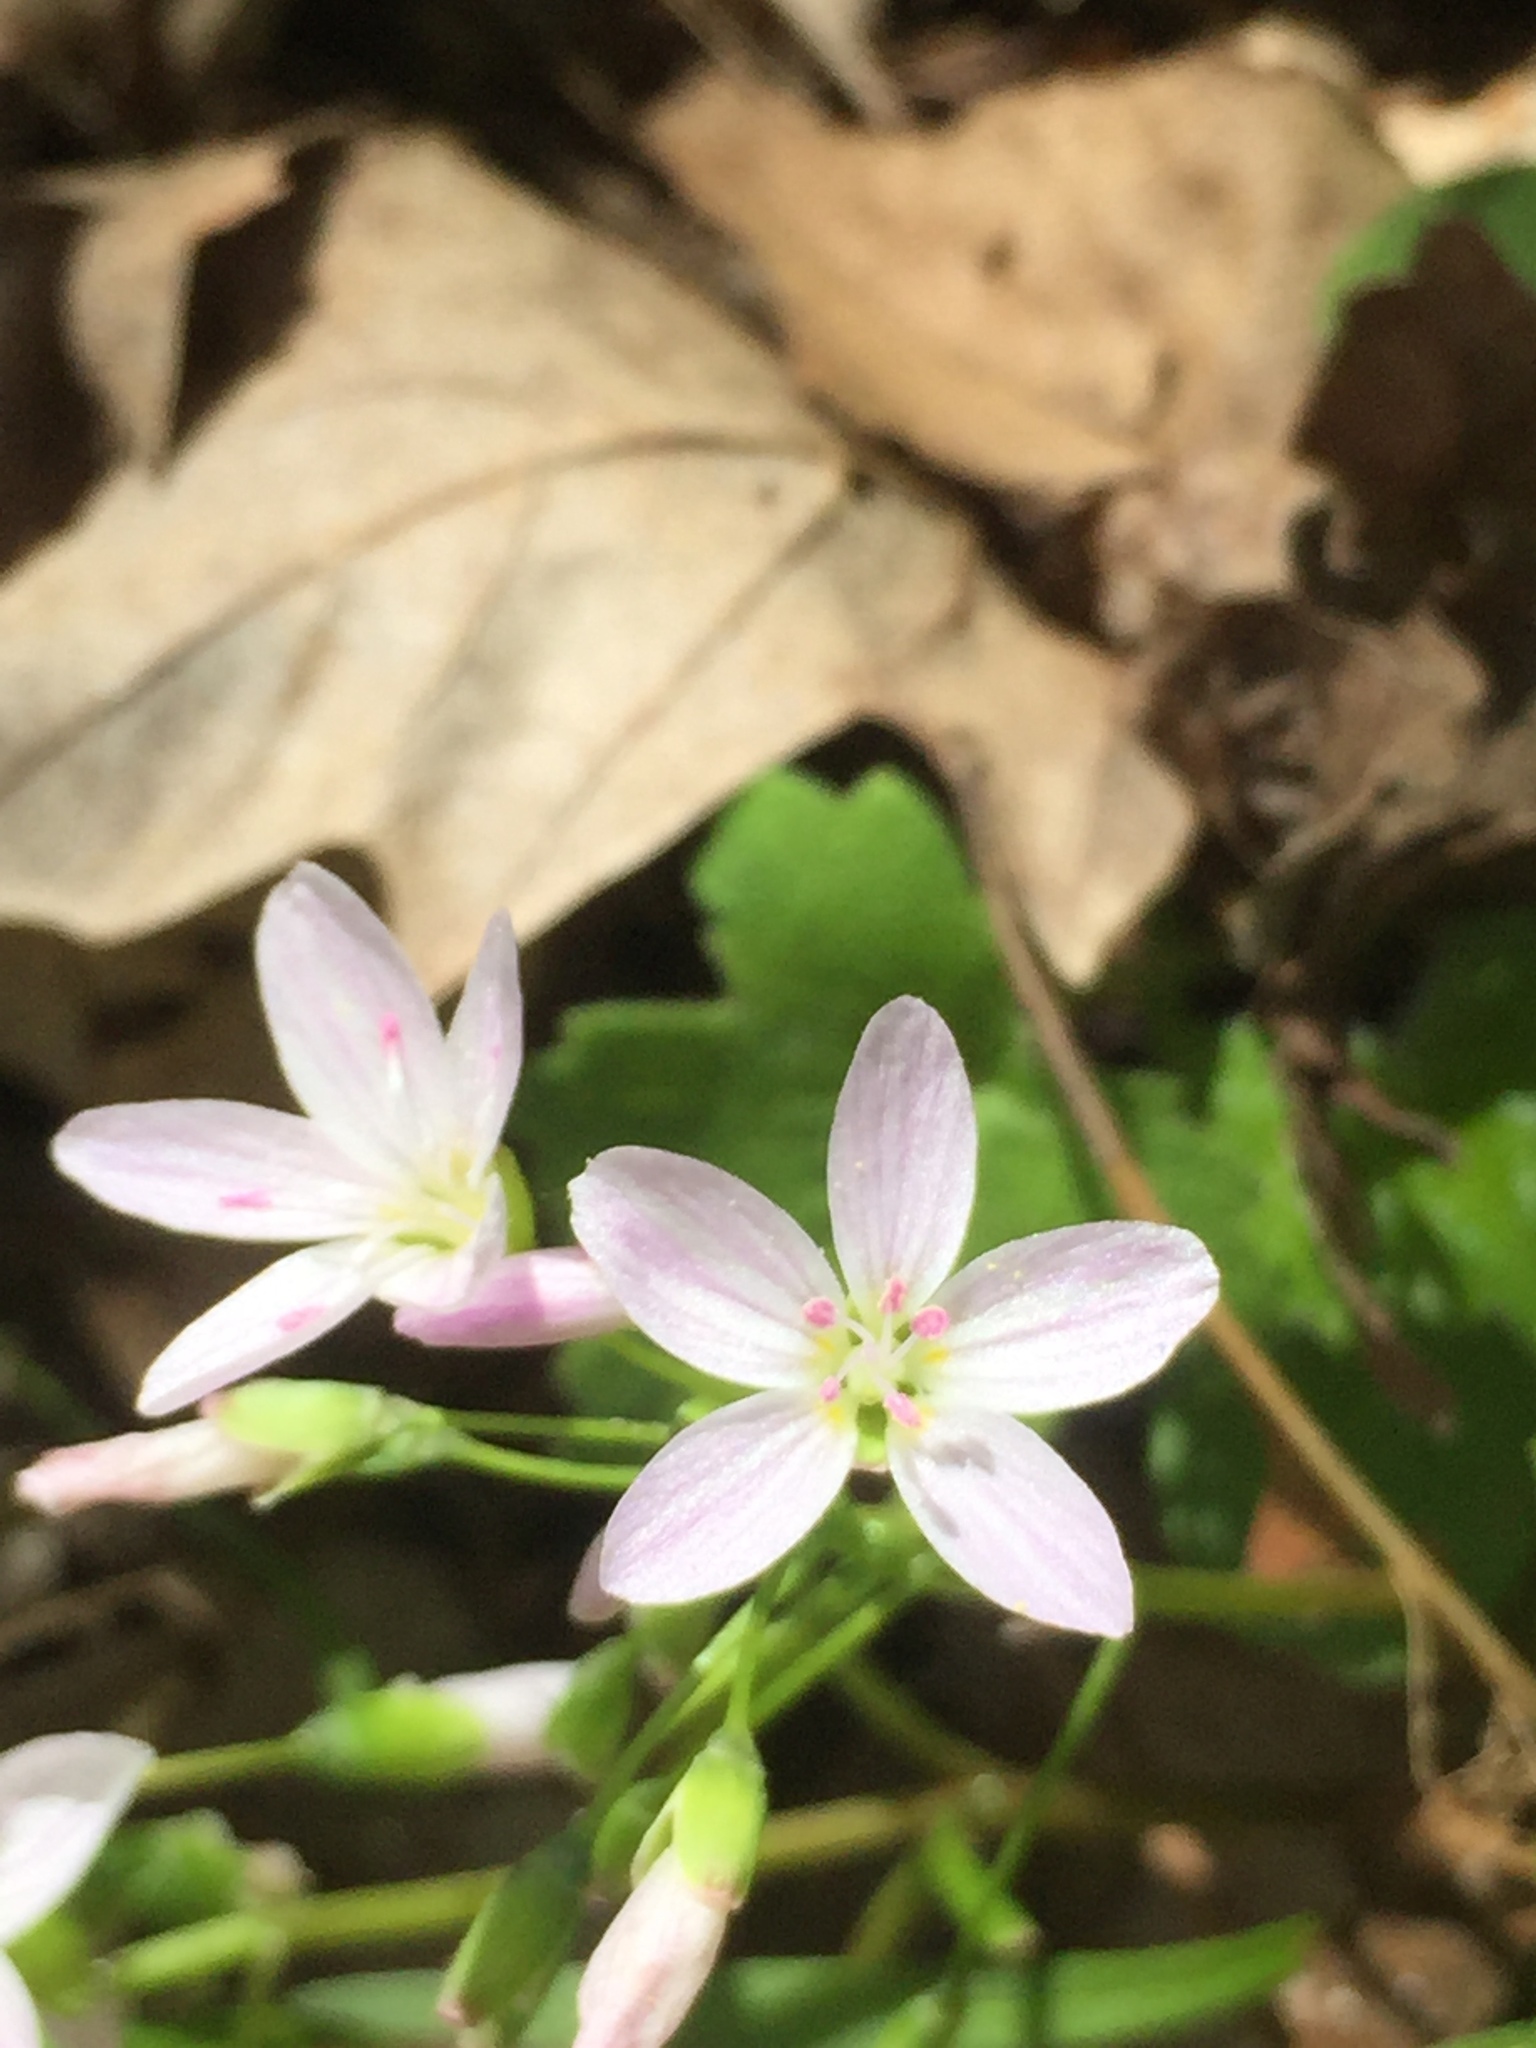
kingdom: Plantae
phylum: Tracheophyta
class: Magnoliopsida
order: Caryophyllales
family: Montiaceae
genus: Claytonia
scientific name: Claytonia virginica
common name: Virginia springbeauty
